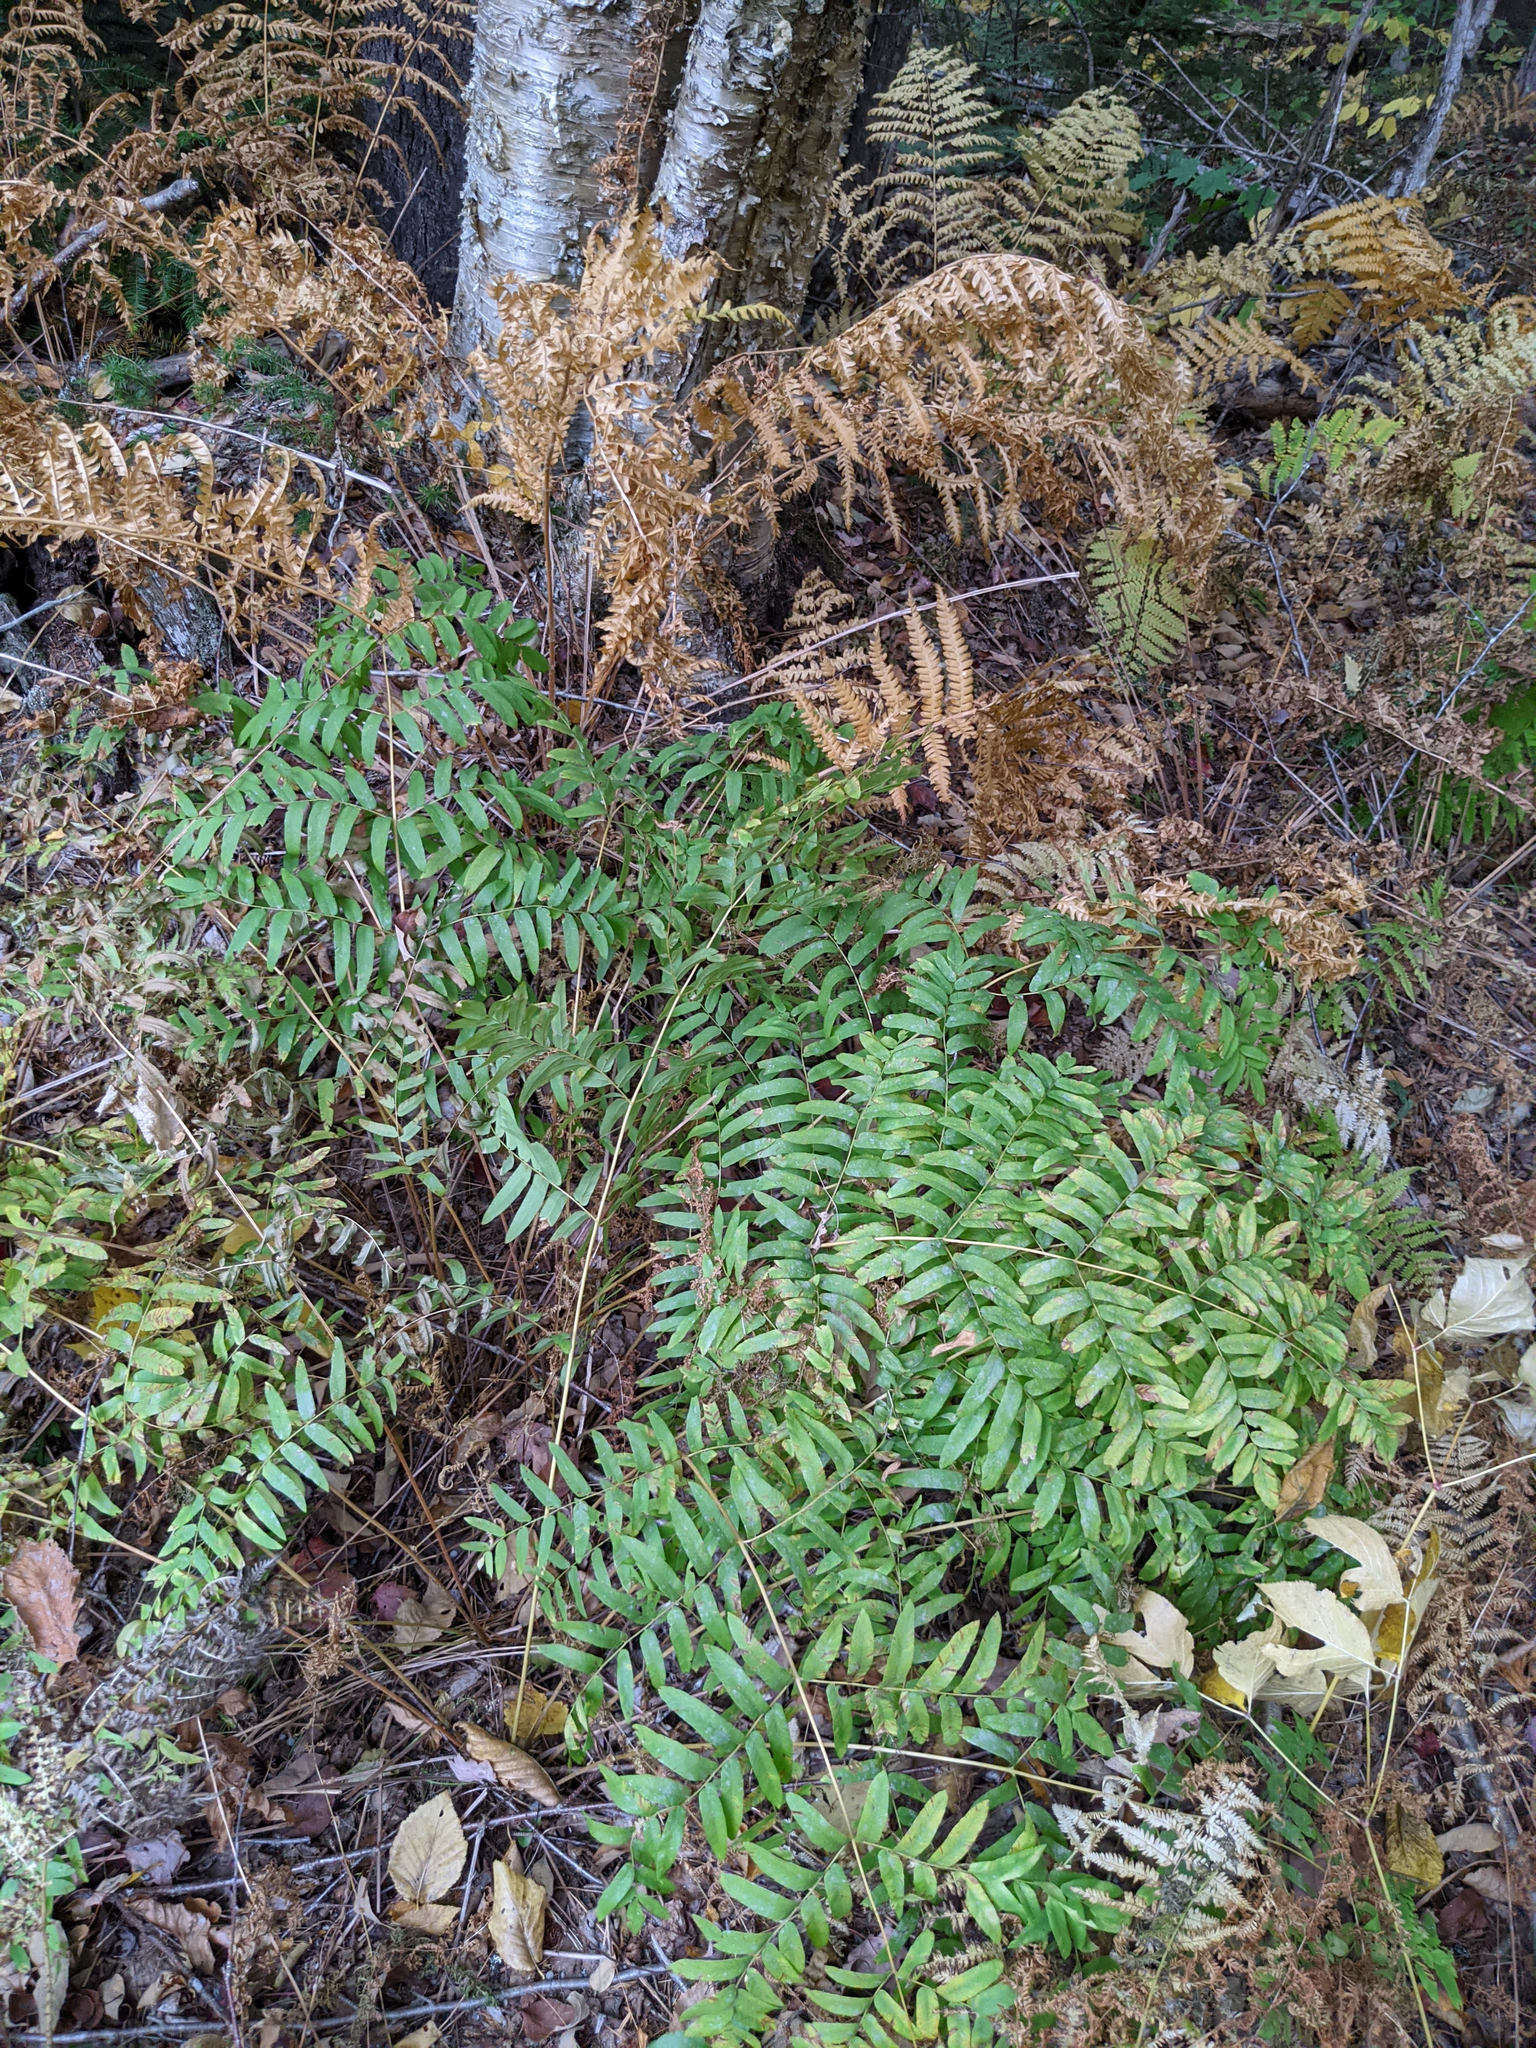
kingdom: Plantae
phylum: Tracheophyta
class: Polypodiopsida
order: Osmundales
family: Osmundaceae
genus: Osmunda
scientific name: Osmunda spectabilis
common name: American royal fern
